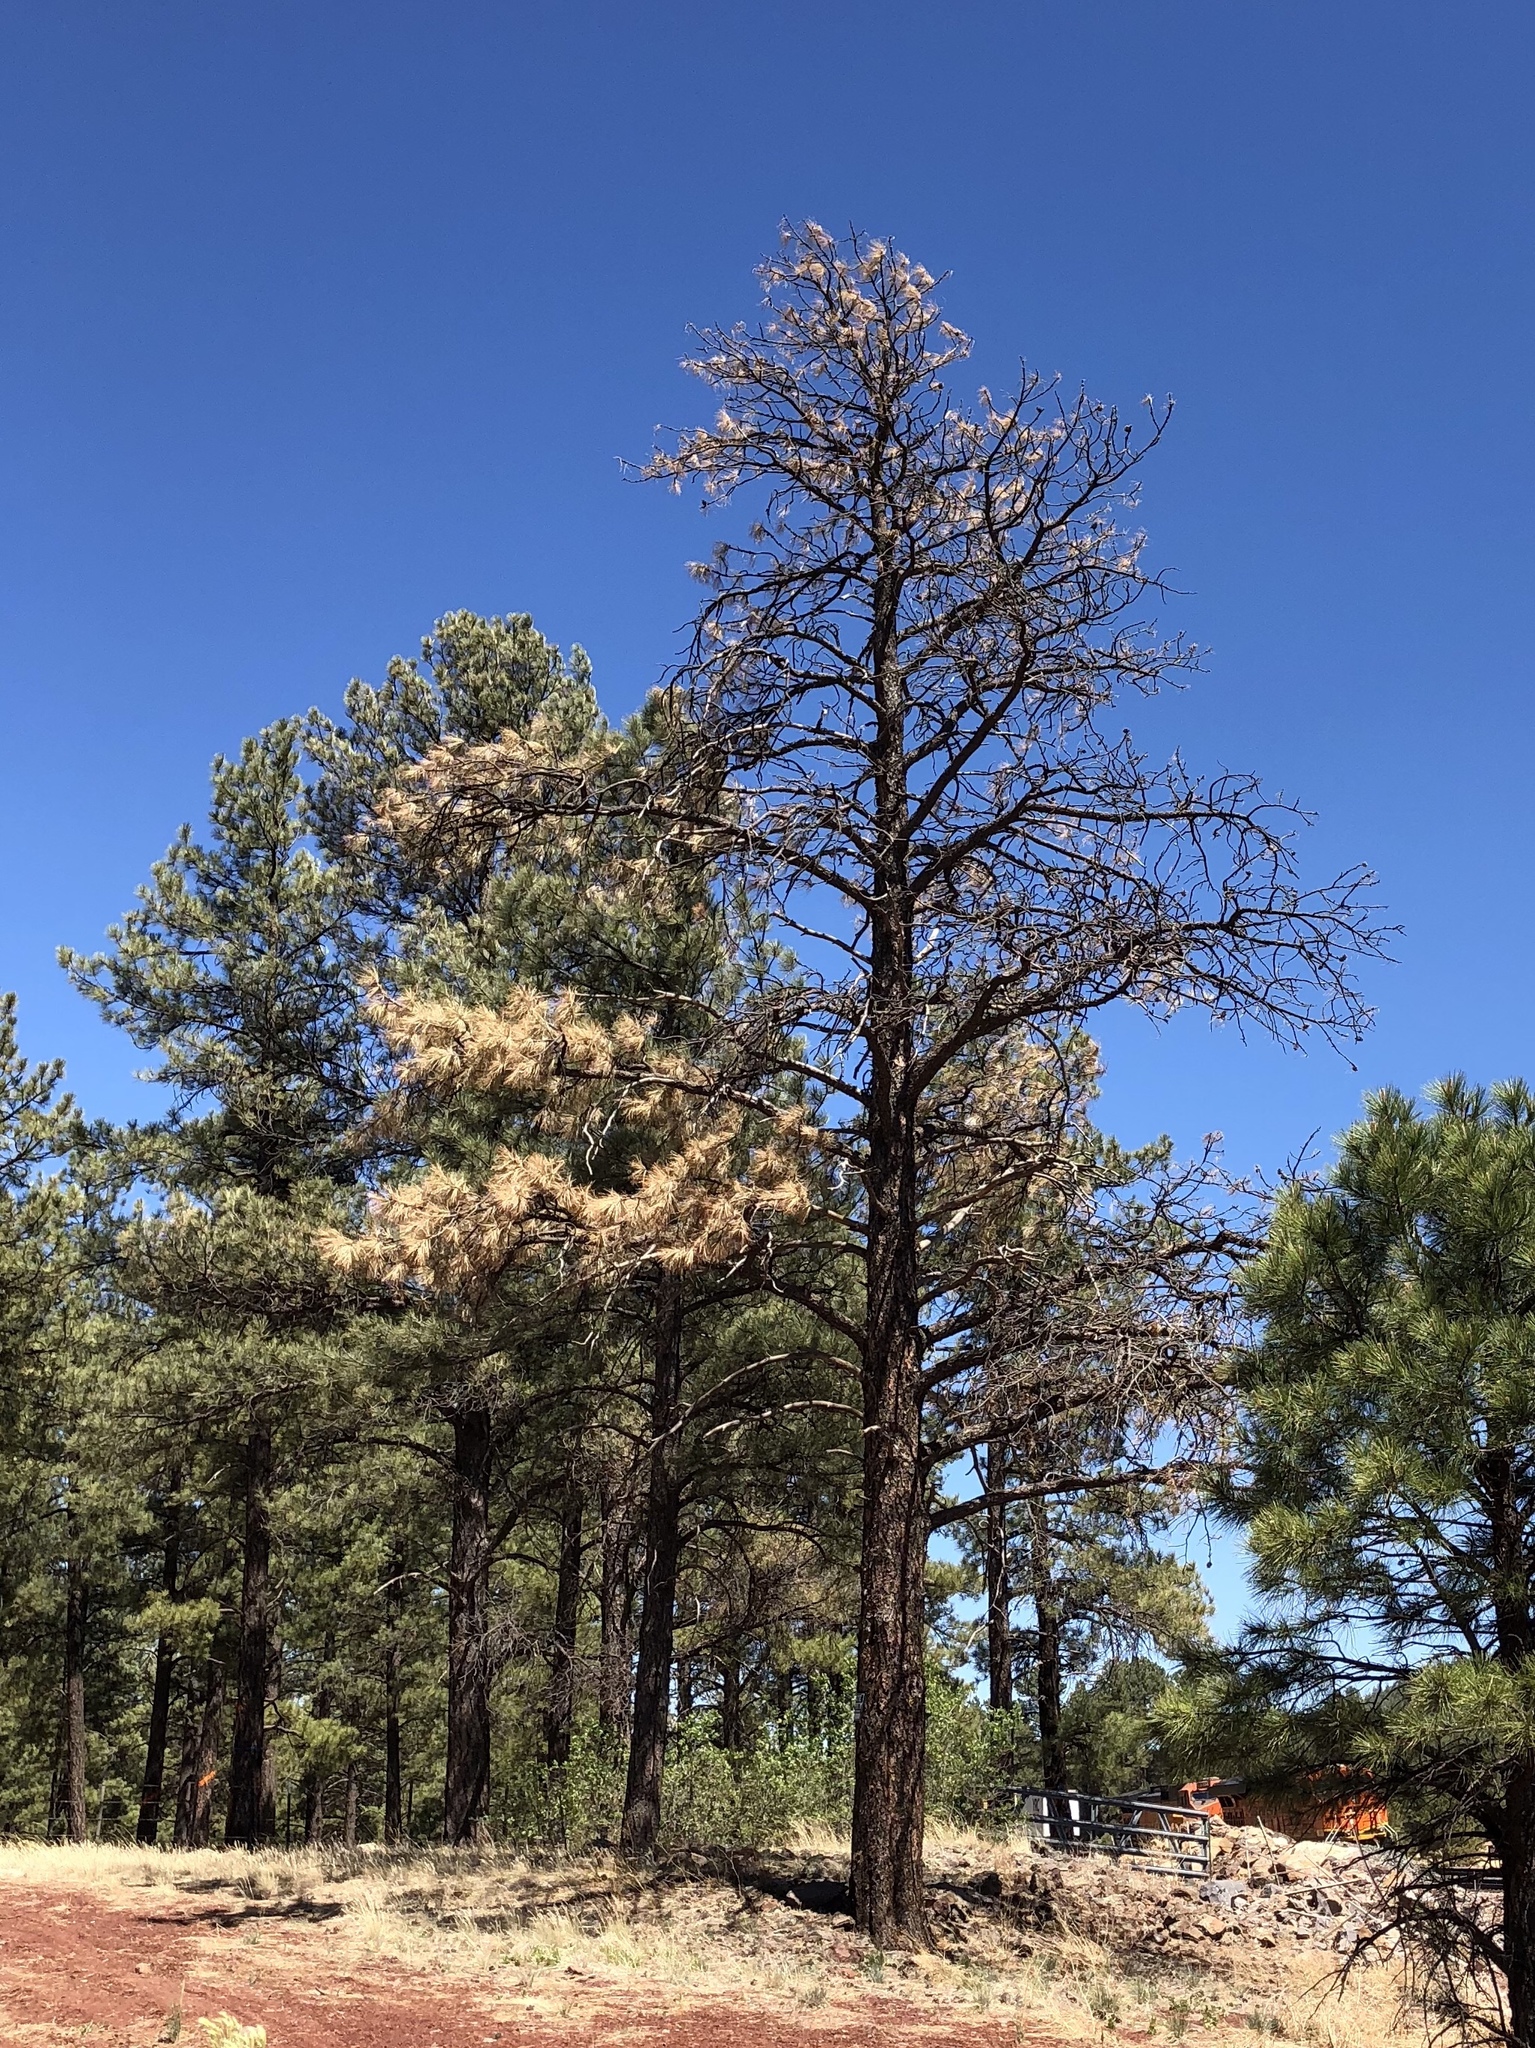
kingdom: Plantae
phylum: Tracheophyta
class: Pinopsida
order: Pinales
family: Pinaceae
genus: Pinus
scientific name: Pinus ponderosa
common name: Western yellow-pine
